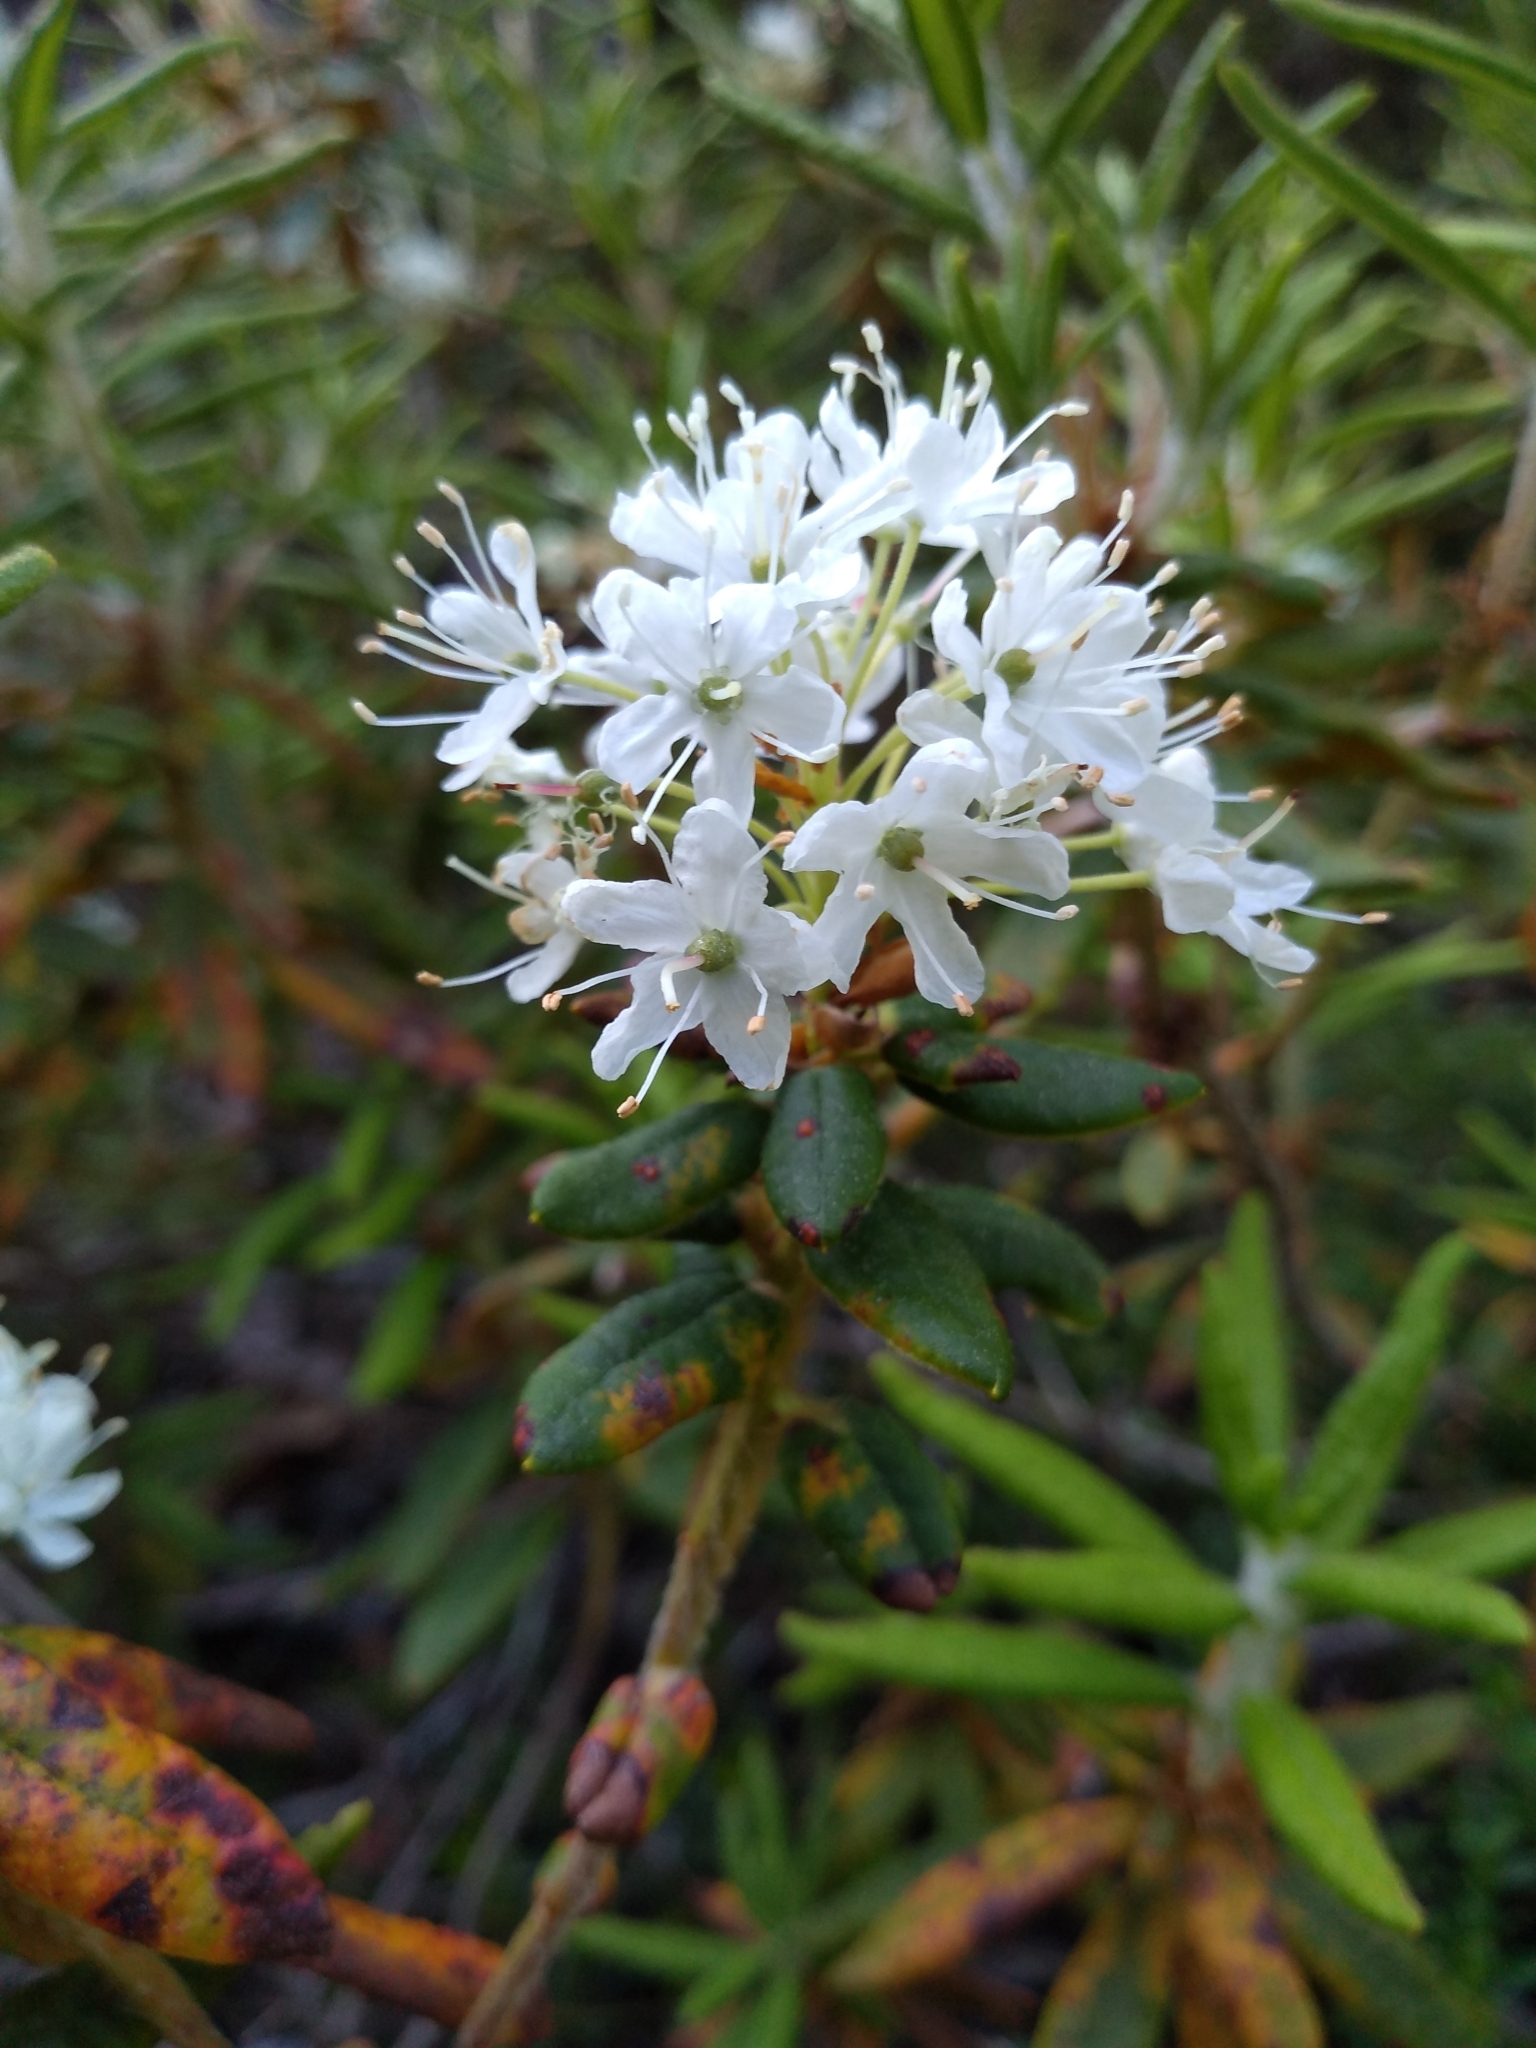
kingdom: Plantae
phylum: Tracheophyta
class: Magnoliopsida
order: Ericales
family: Ericaceae
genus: Rhododendron
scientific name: Rhododendron groenlandicum
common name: Bog labrador tea
